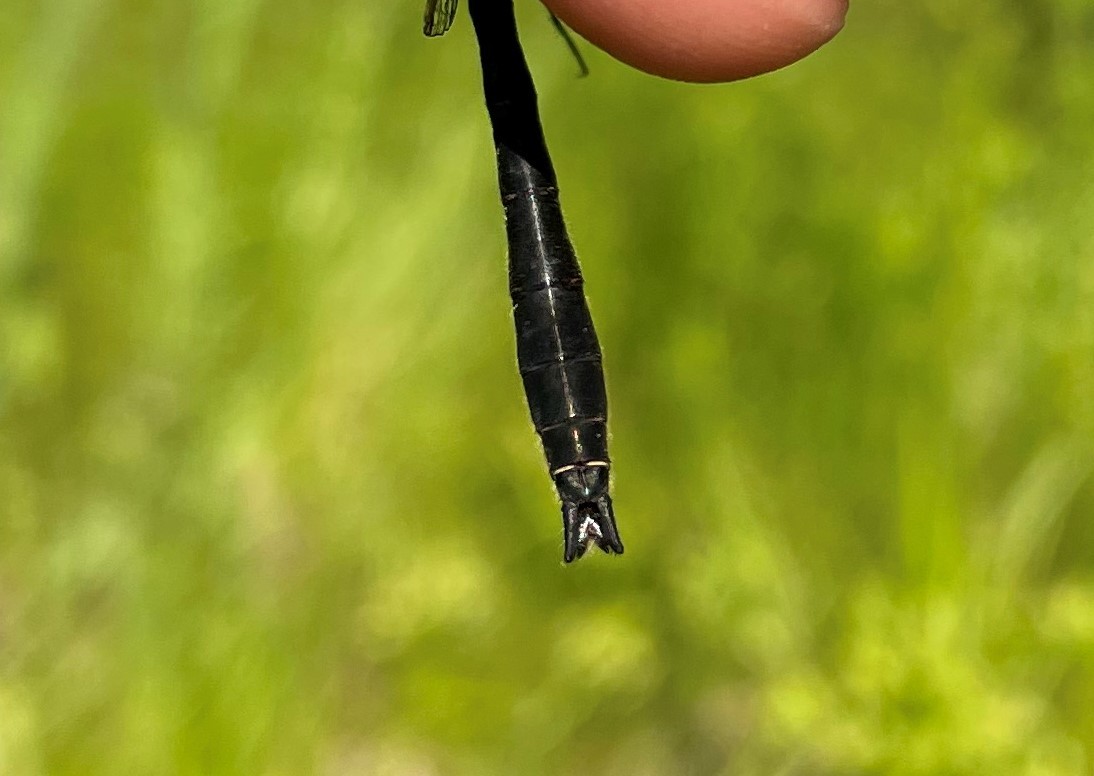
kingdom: Animalia
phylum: Arthropoda
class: Insecta
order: Odonata
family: Corduliidae
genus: Cordulia
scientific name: Cordulia shurtleffii
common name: American emerald
